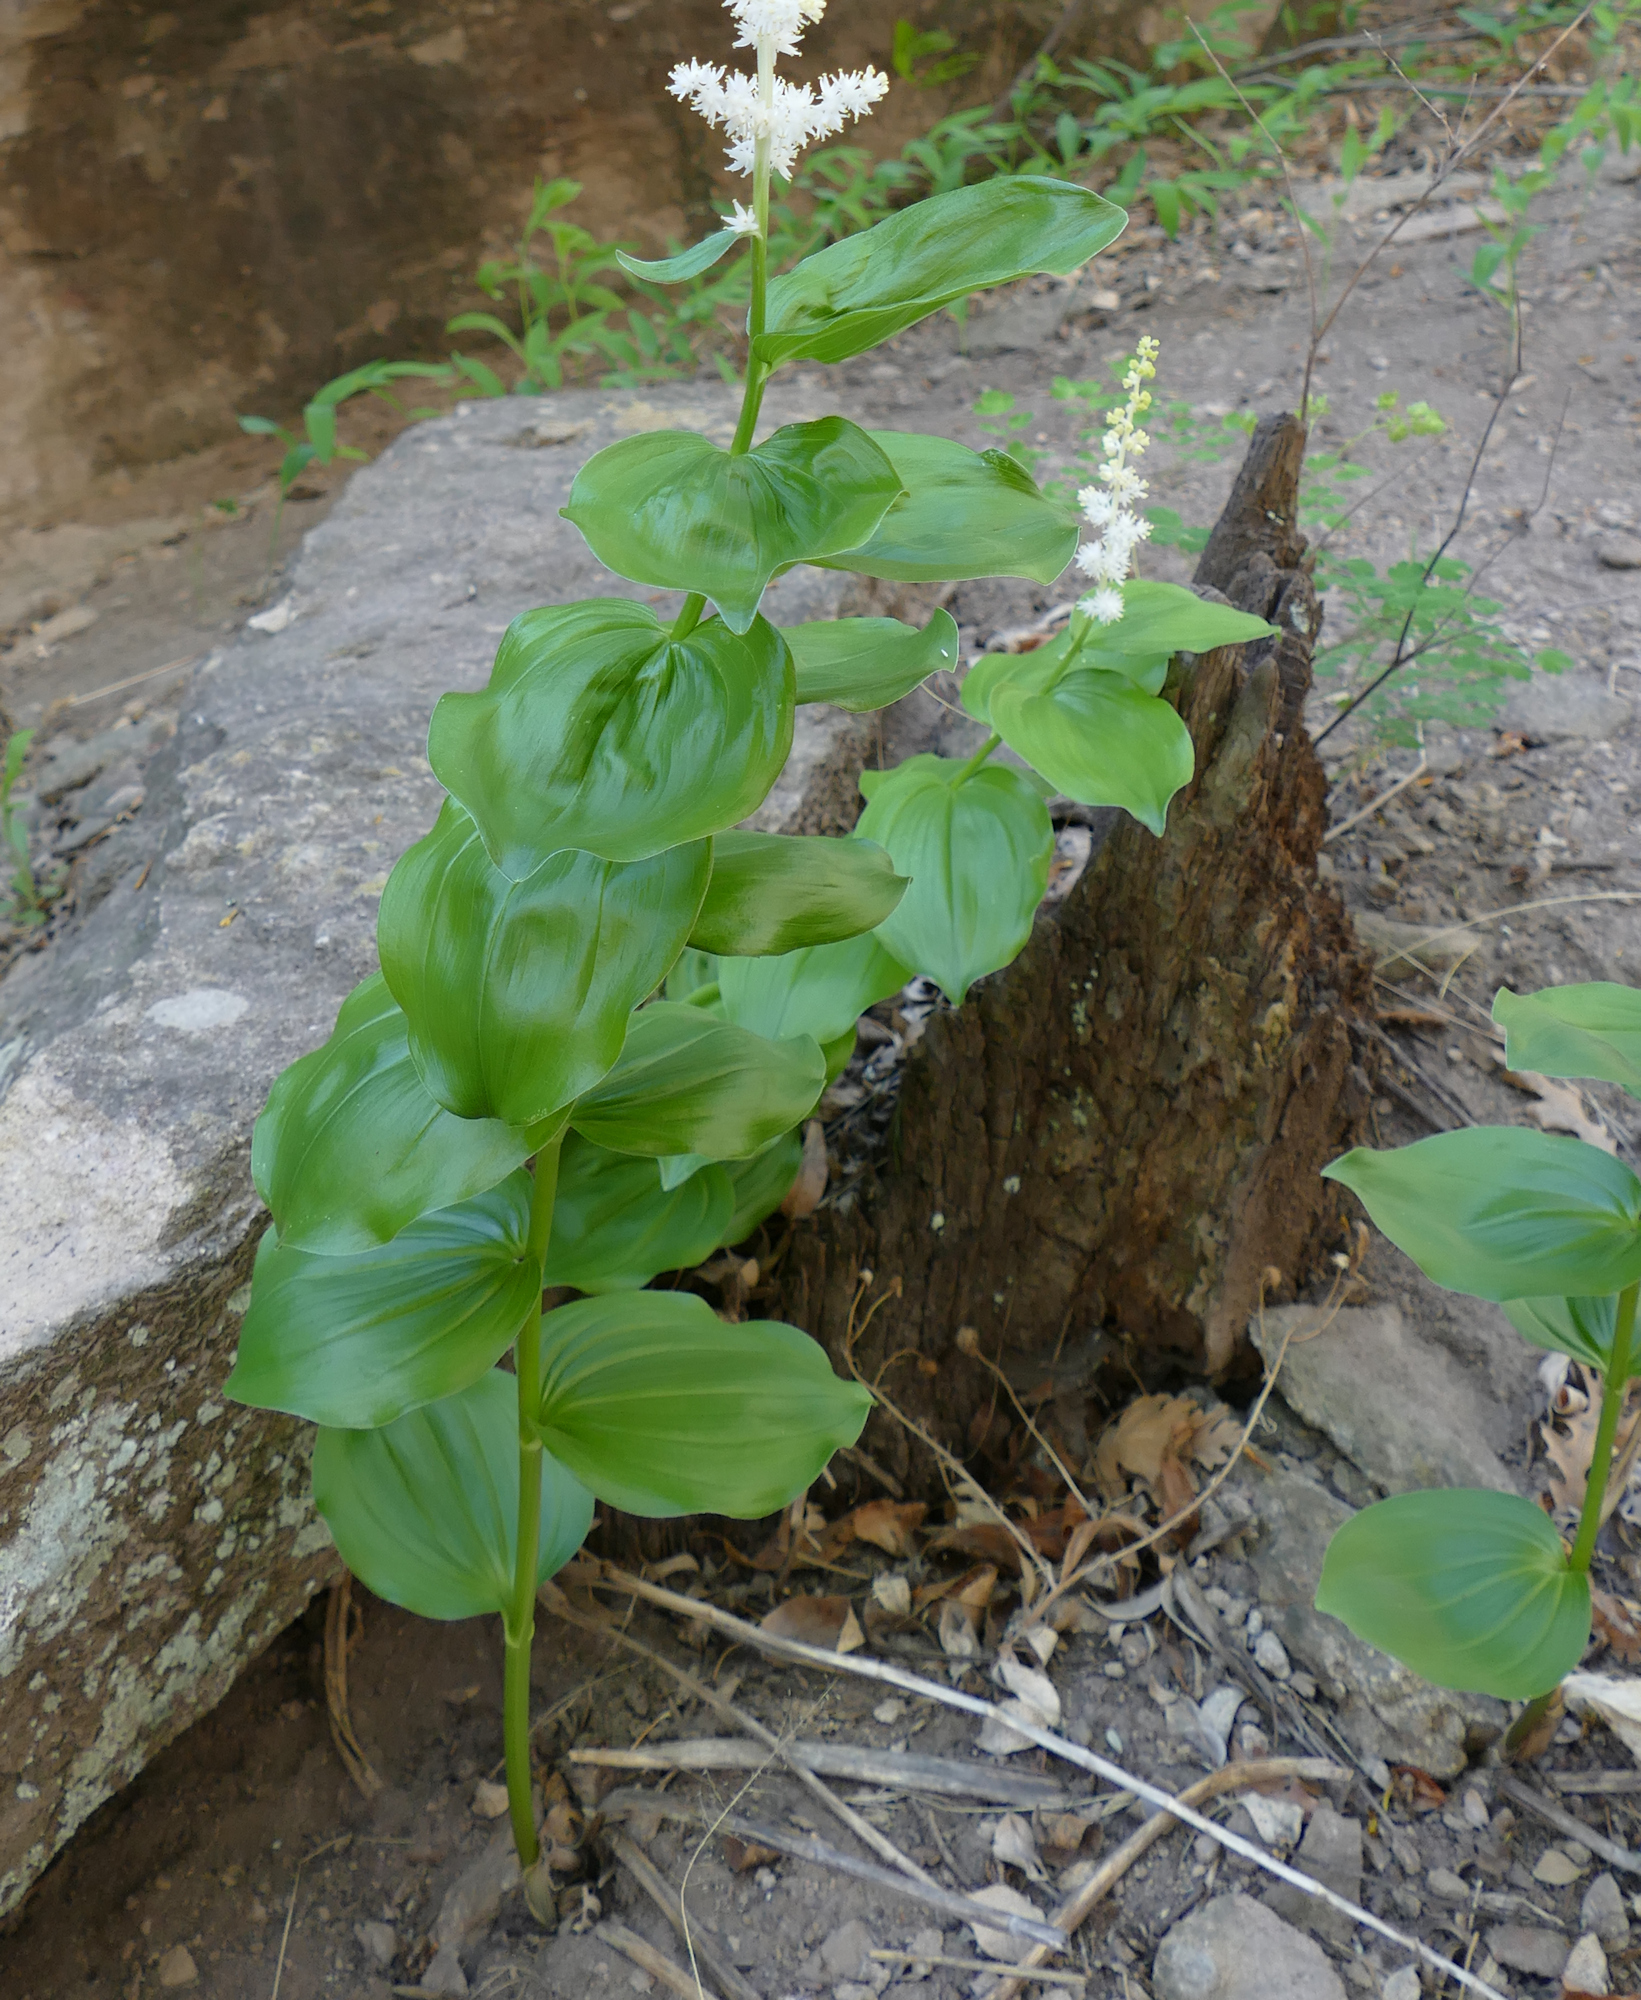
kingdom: Plantae
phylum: Tracheophyta
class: Liliopsida
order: Asparagales
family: Asparagaceae
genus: Maianthemum
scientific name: Maianthemum racemosum
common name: False spikenard
